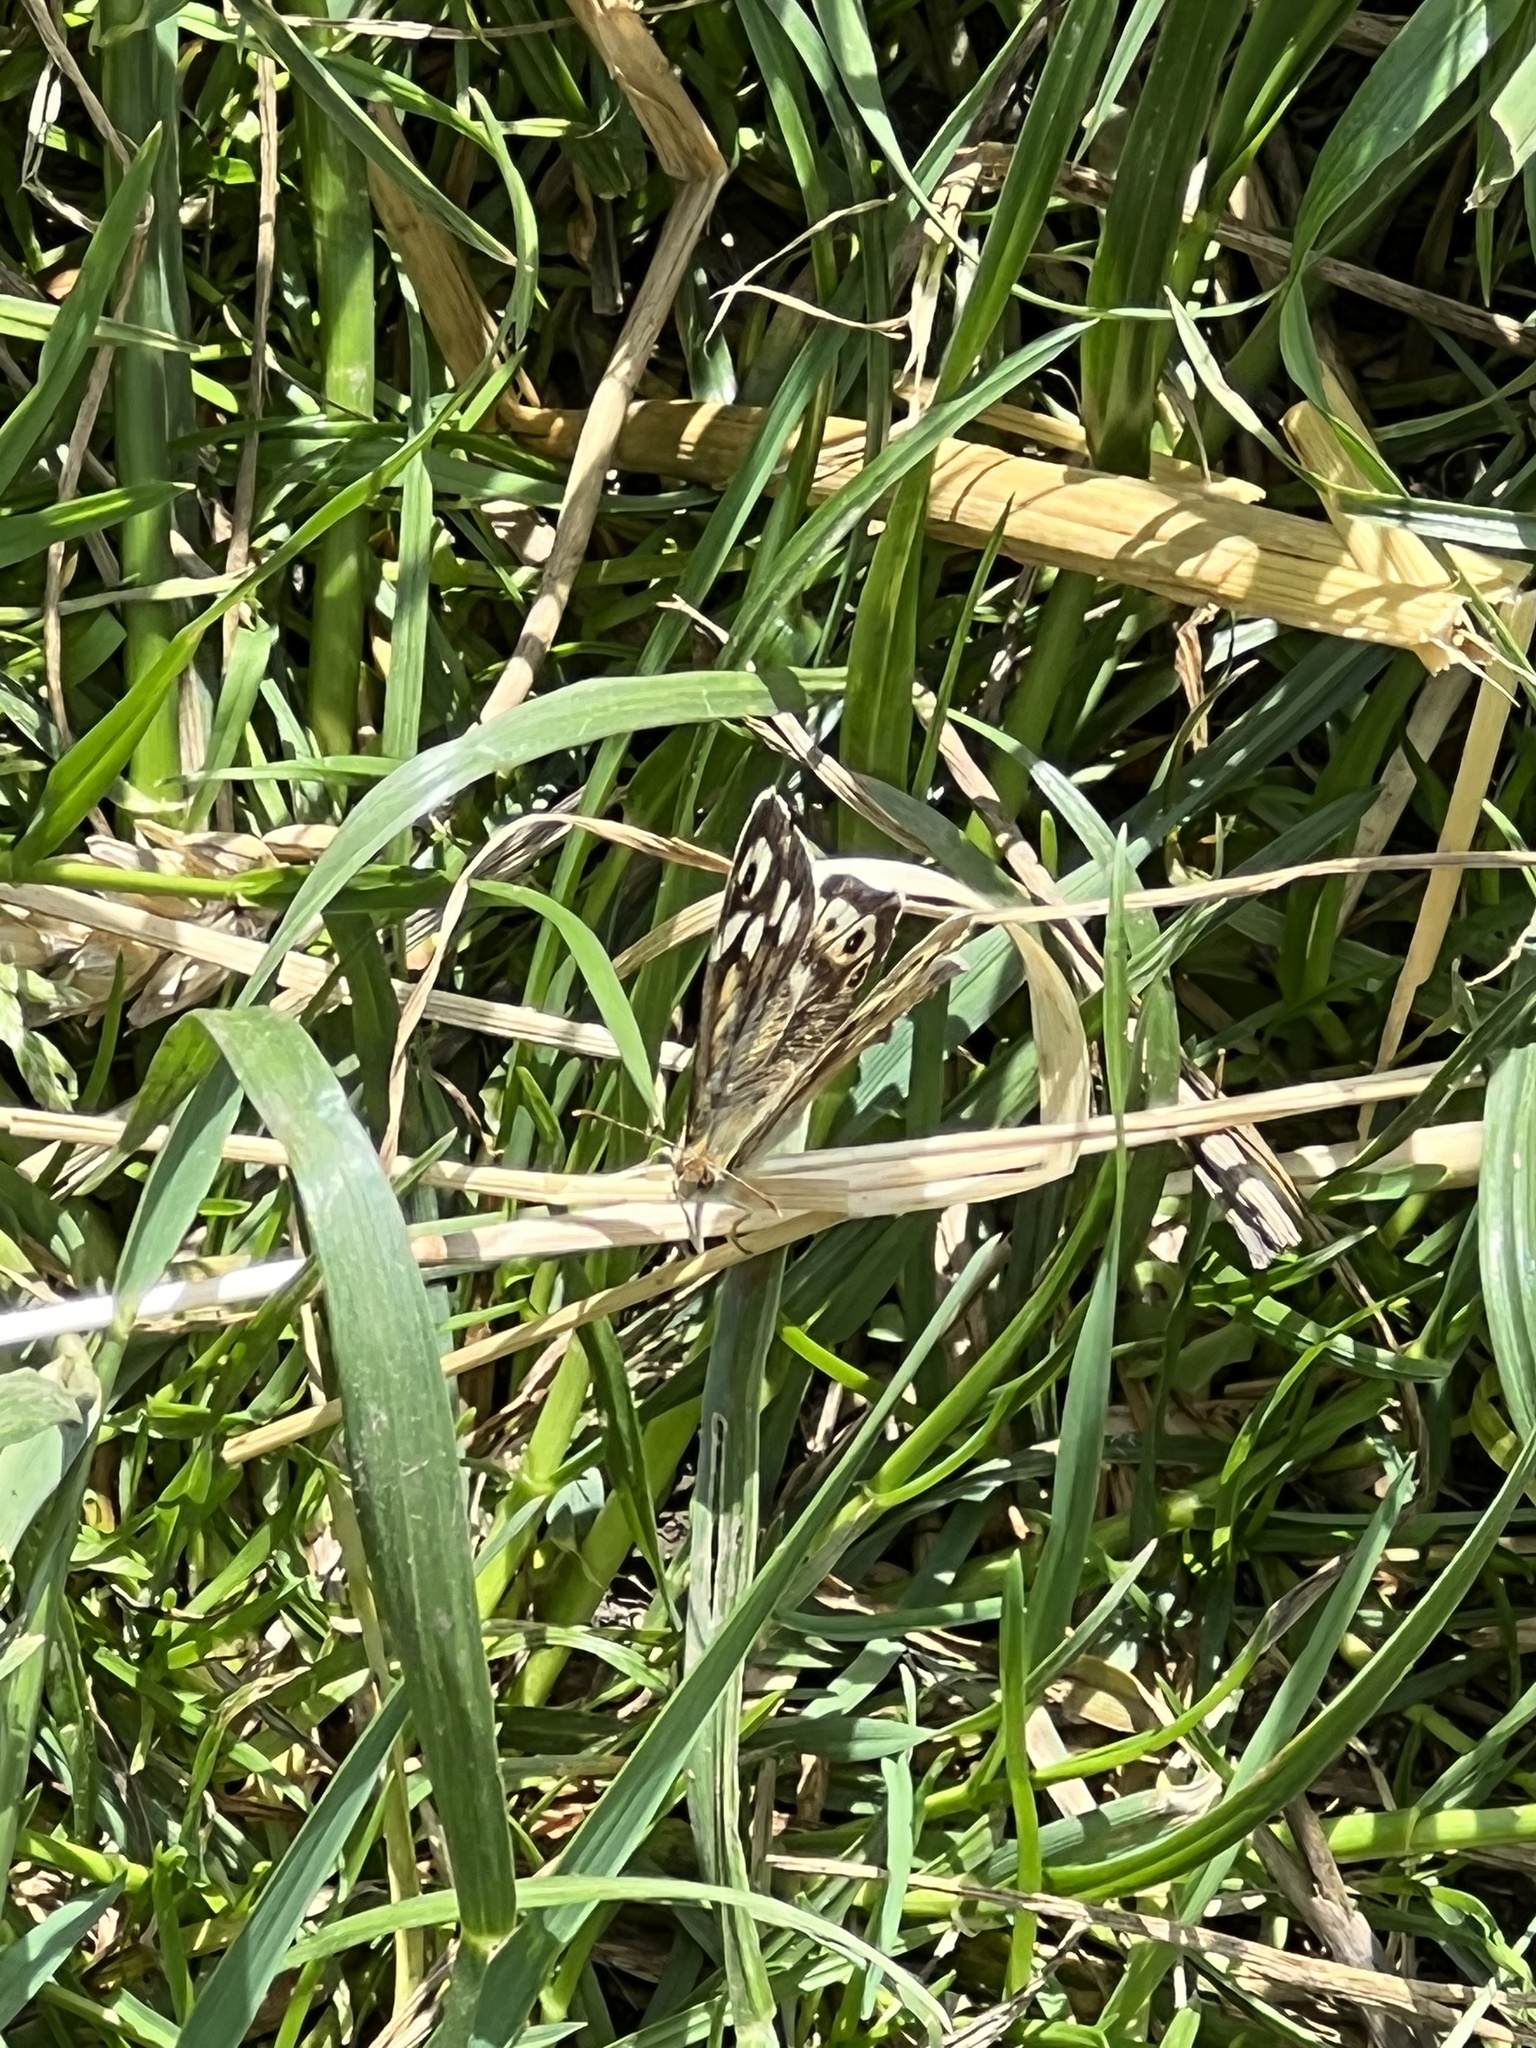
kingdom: Animalia
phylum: Arthropoda
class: Insecta
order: Lepidoptera
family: Nymphalidae
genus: Pararge
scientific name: Pararge aegeria
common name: Speckled wood
